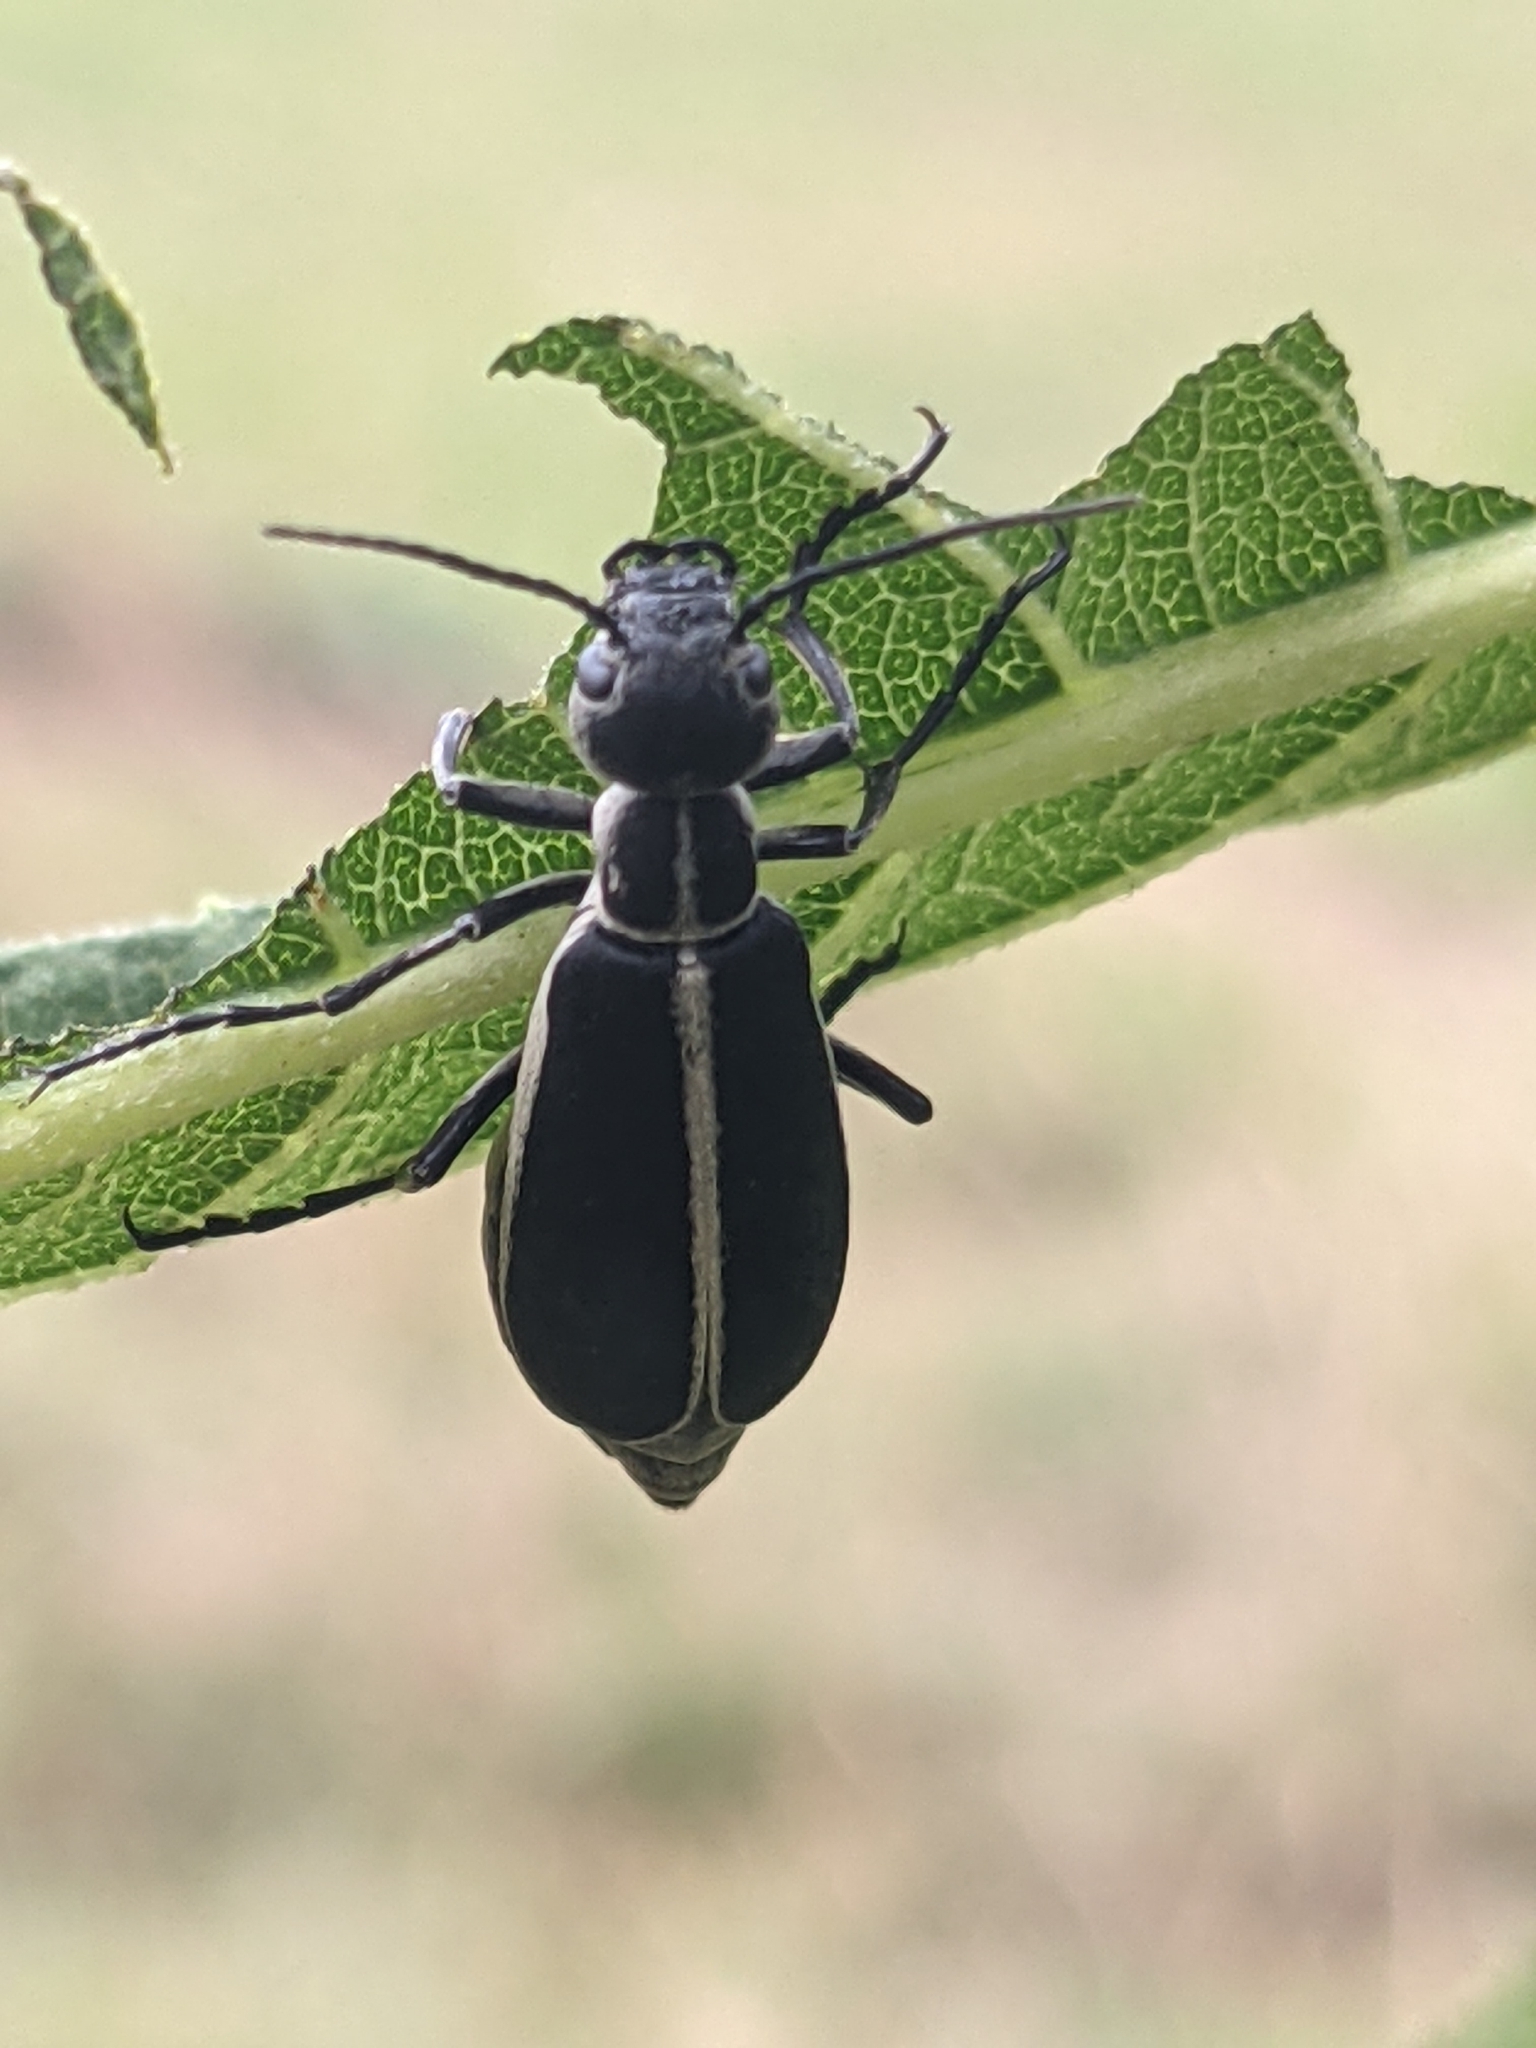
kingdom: Animalia
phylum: Arthropoda
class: Insecta
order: Coleoptera
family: Meloidae
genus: Epicauta
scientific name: Epicauta funebris
